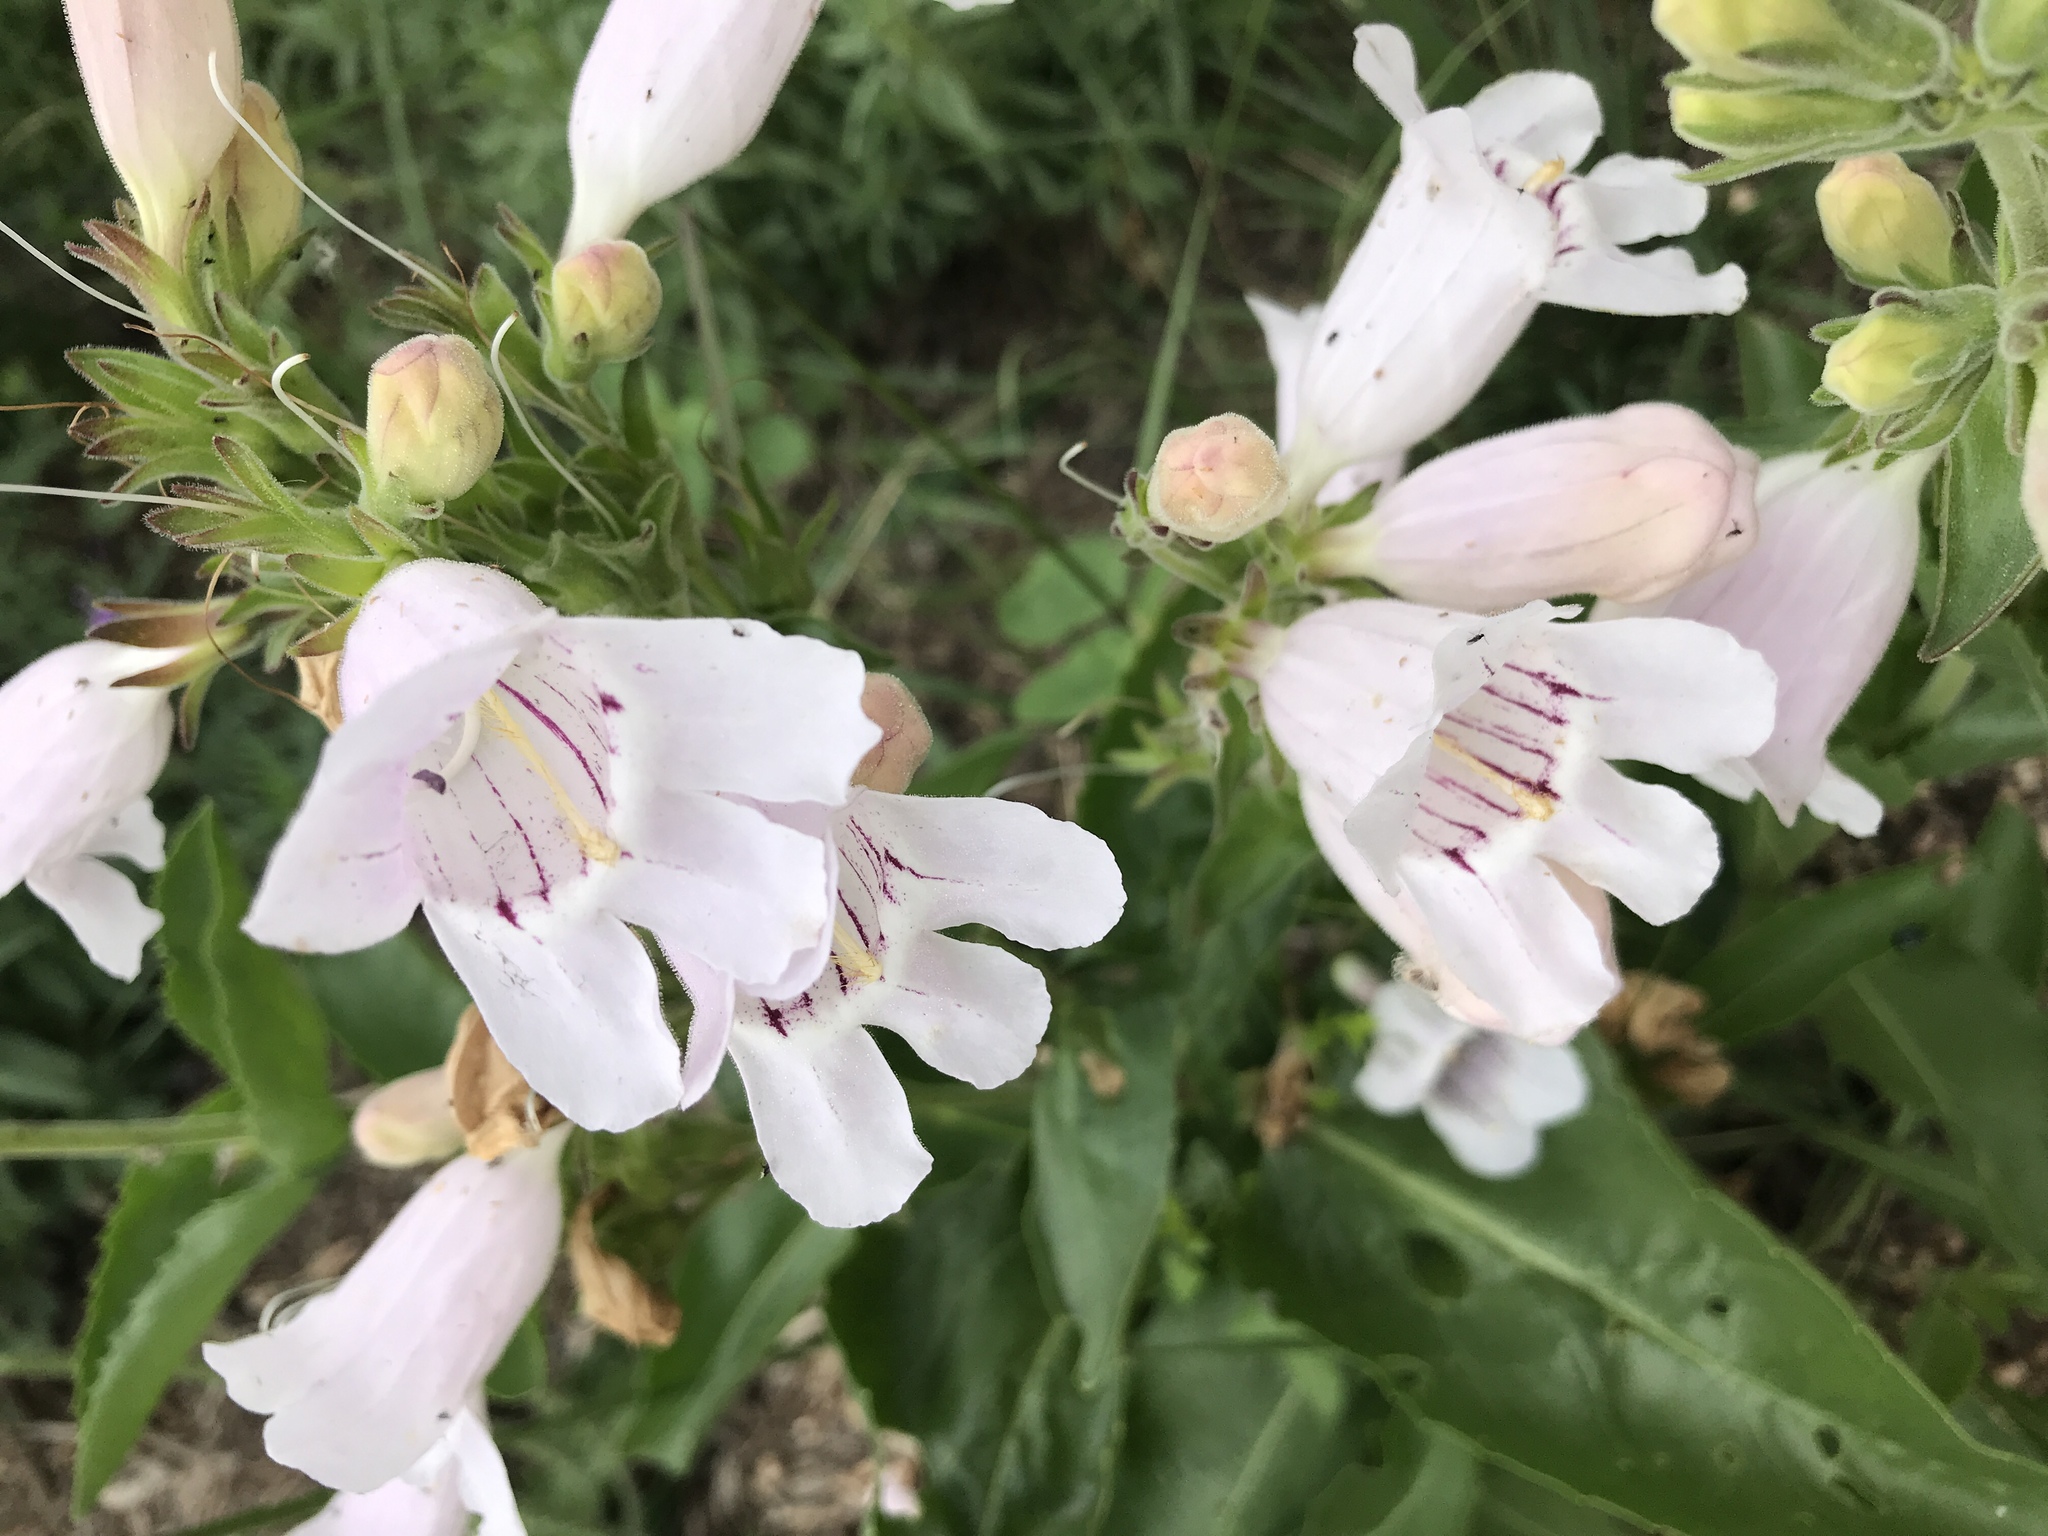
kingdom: Plantae
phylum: Tracheophyta
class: Magnoliopsida
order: Lamiales
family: Plantaginaceae
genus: Penstemon
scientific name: Penstemon cobaea
